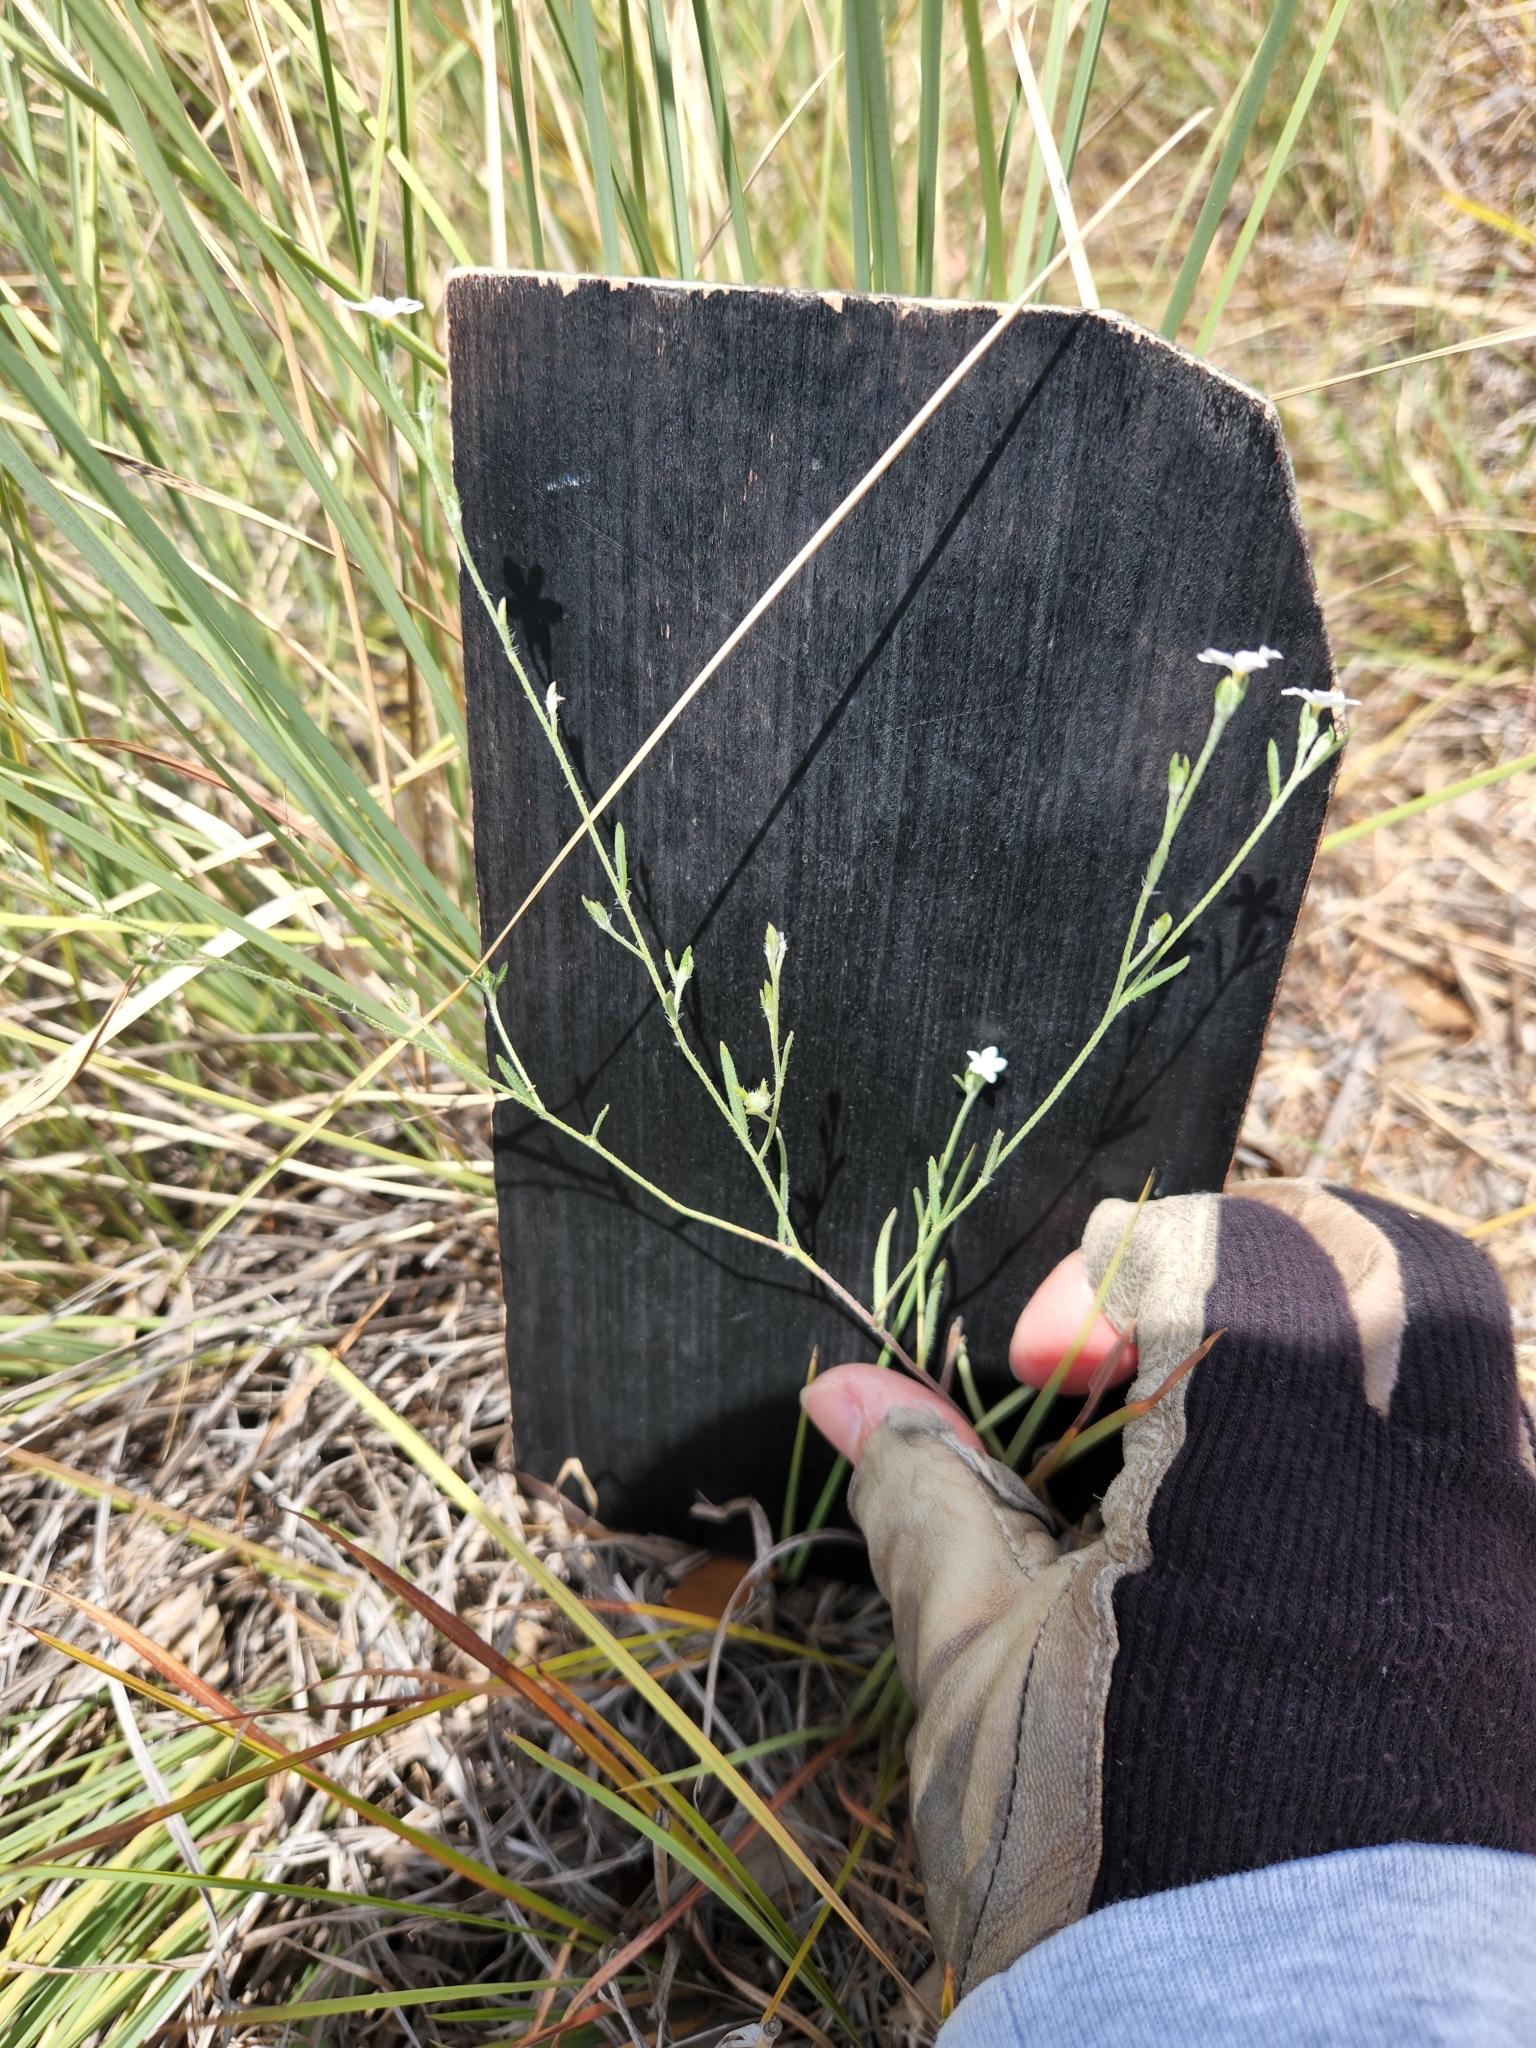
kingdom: Plantae
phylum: Tracheophyta
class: Magnoliopsida
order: Boraginales
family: Heliotropiaceae
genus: Euploca
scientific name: Euploca tenella
